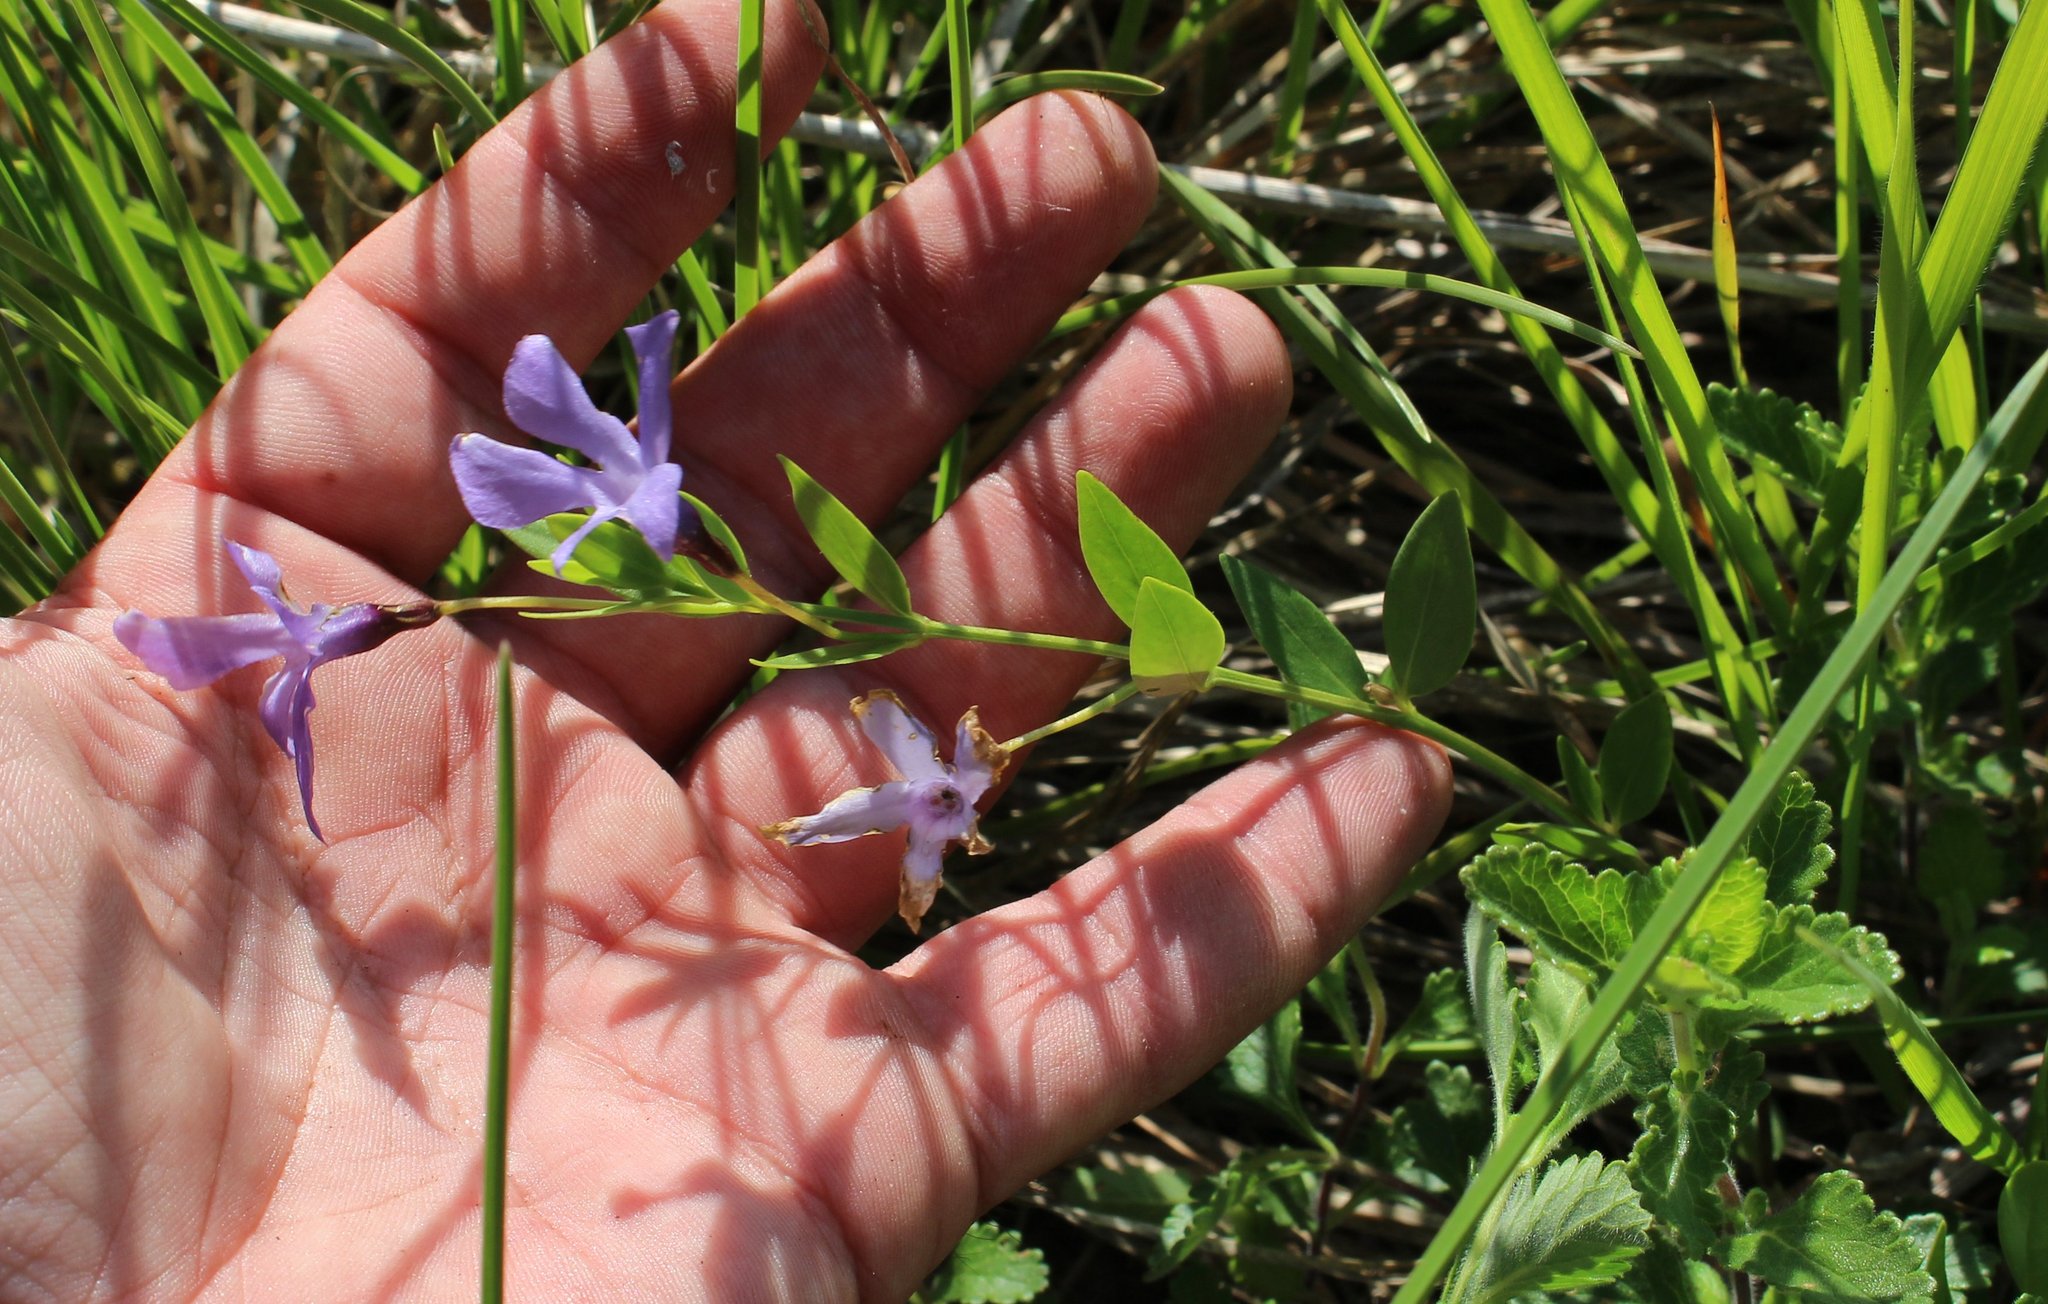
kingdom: Plantae
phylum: Tracheophyta
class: Magnoliopsida
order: Gentianales
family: Apocynaceae
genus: Vinca
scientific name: Vinca herbacea
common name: Herbaceous periwinkle
